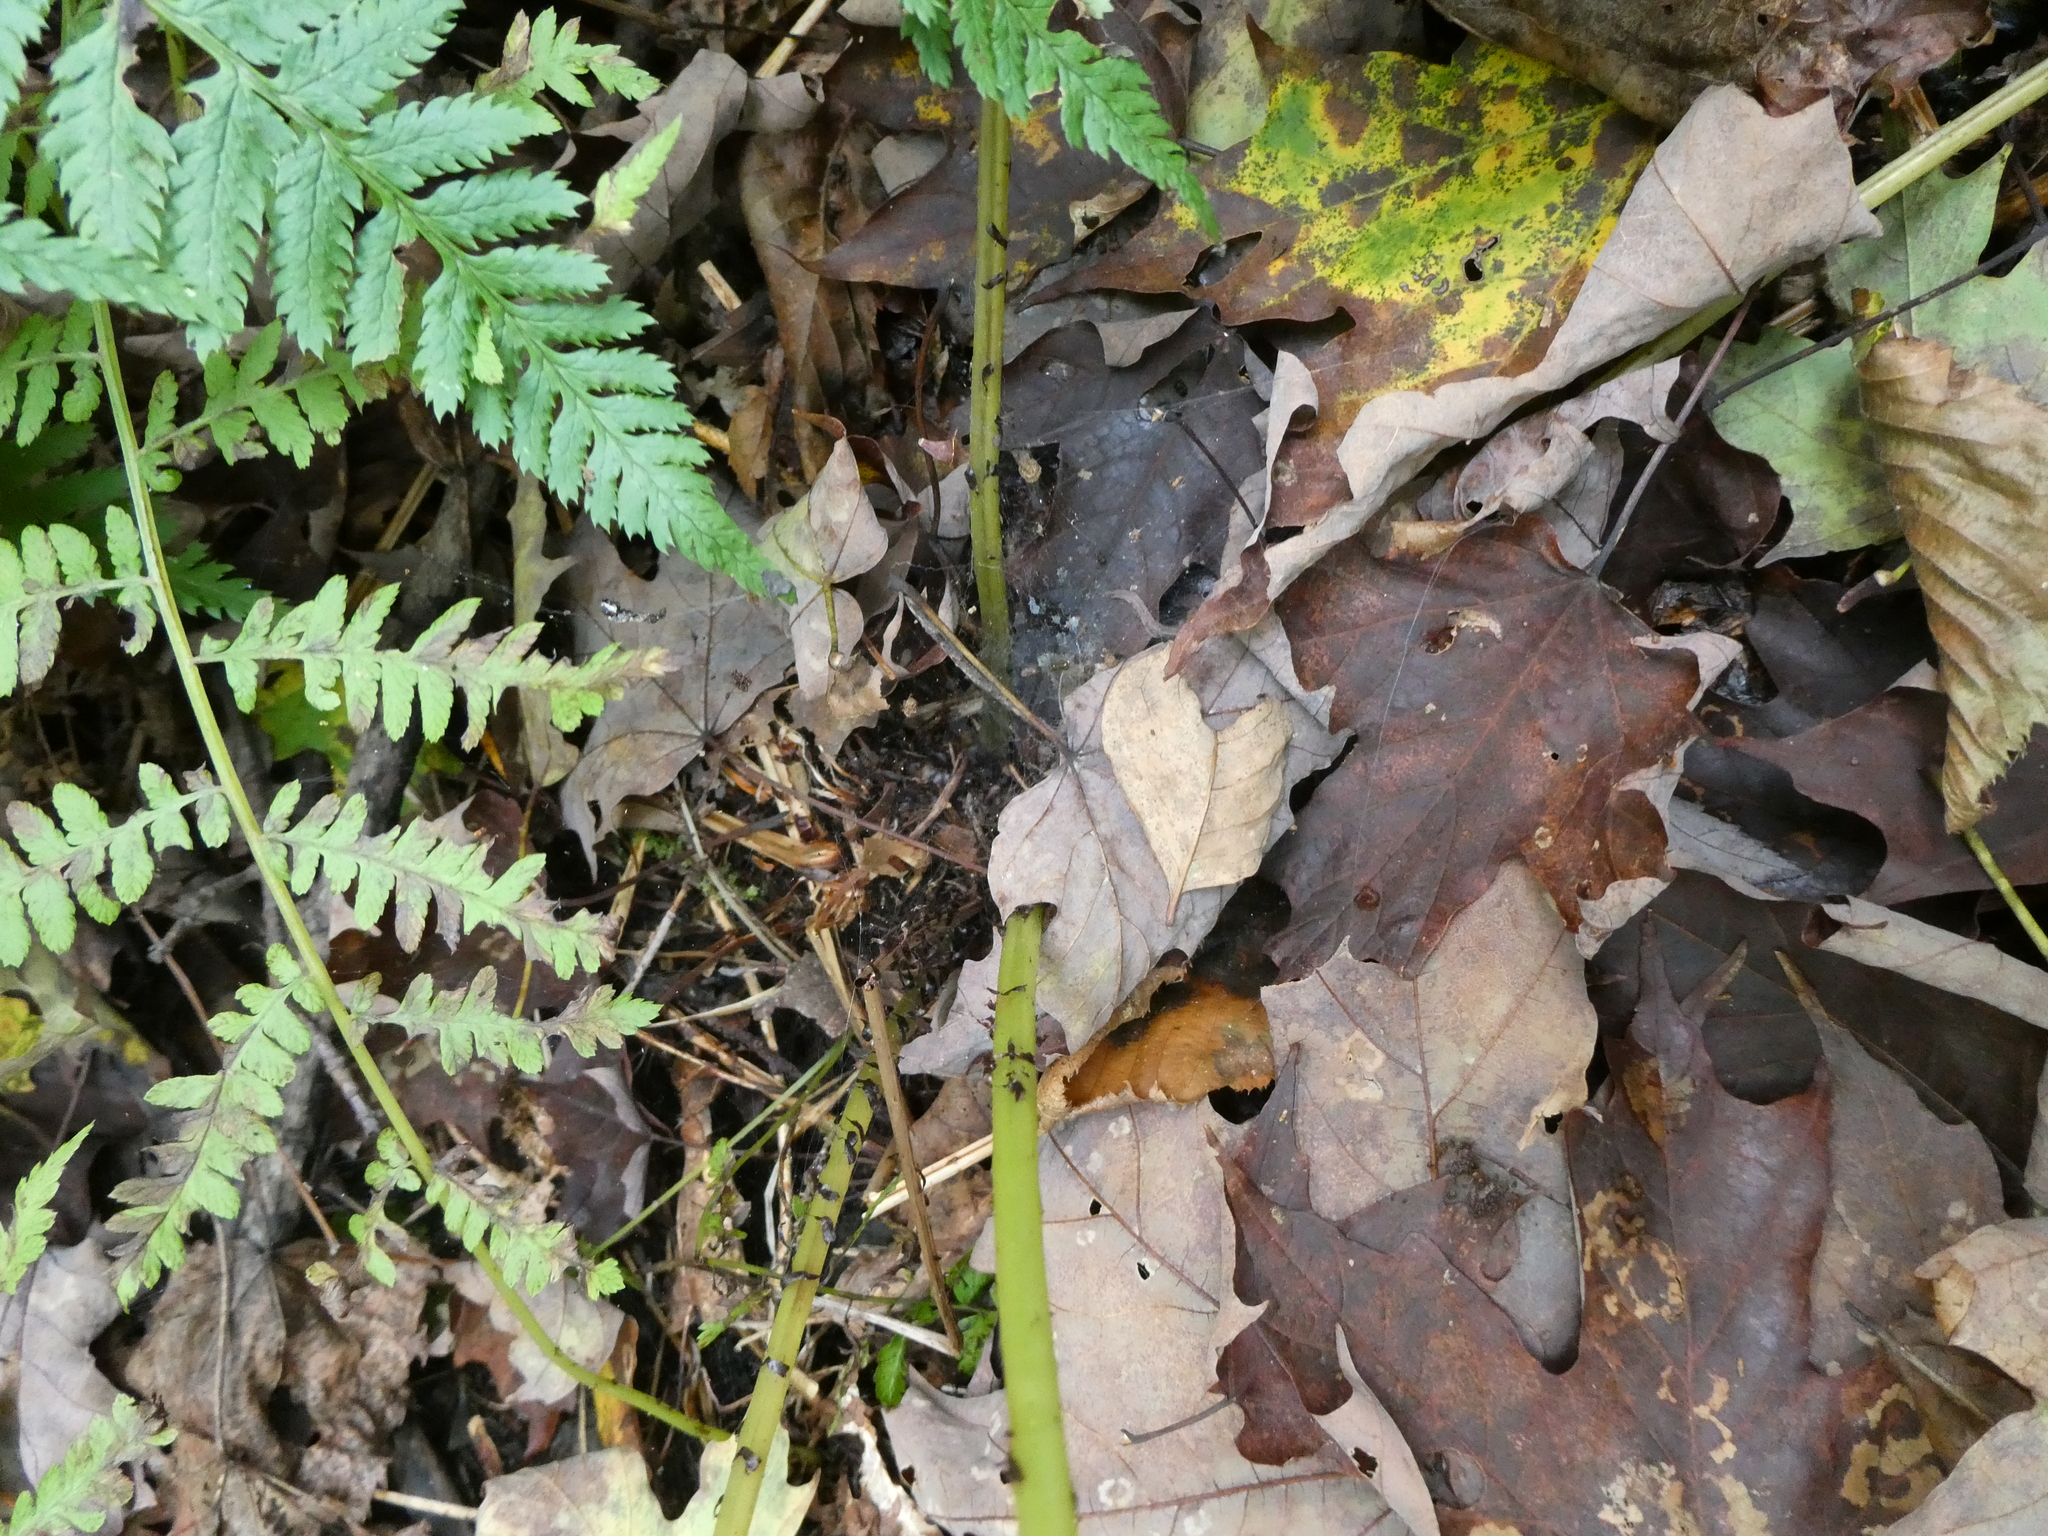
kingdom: Plantae
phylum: Tracheophyta
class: Polypodiopsida
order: Polypodiales
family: Athyriaceae
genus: Athyrium
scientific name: Athyrium angustum
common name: Northern lady fern
